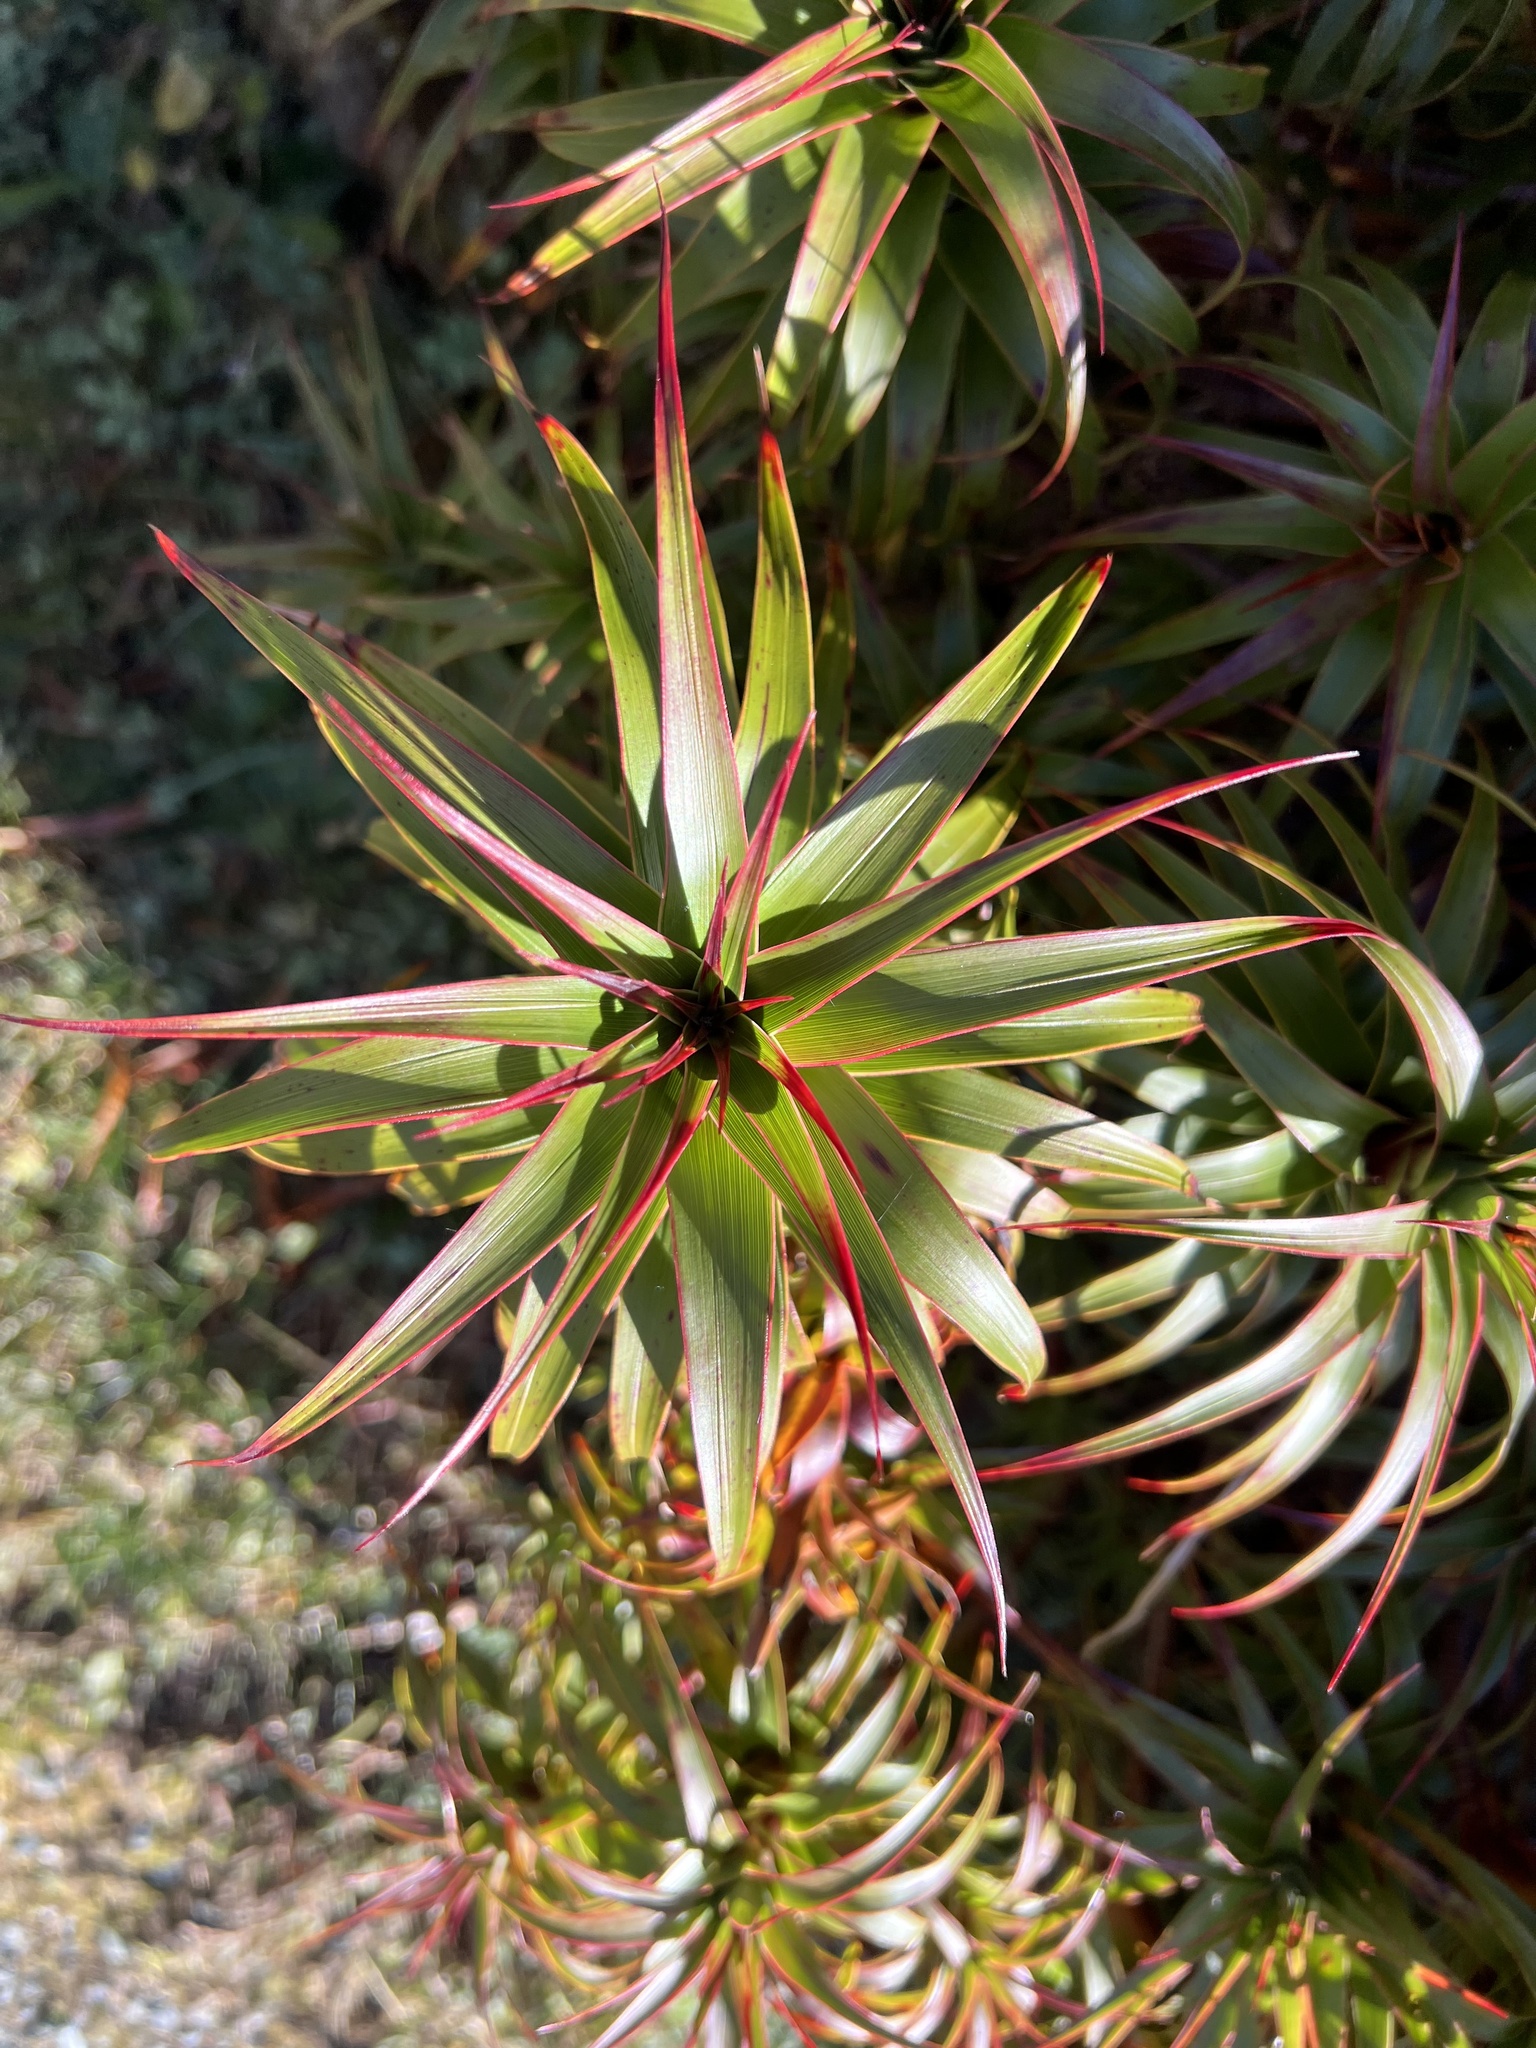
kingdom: Plantae
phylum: Tracheophyta
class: Magnoliopsida
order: Ericales
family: Ericaceae
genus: Dracophyllum
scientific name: Dracophyllum menziesii
